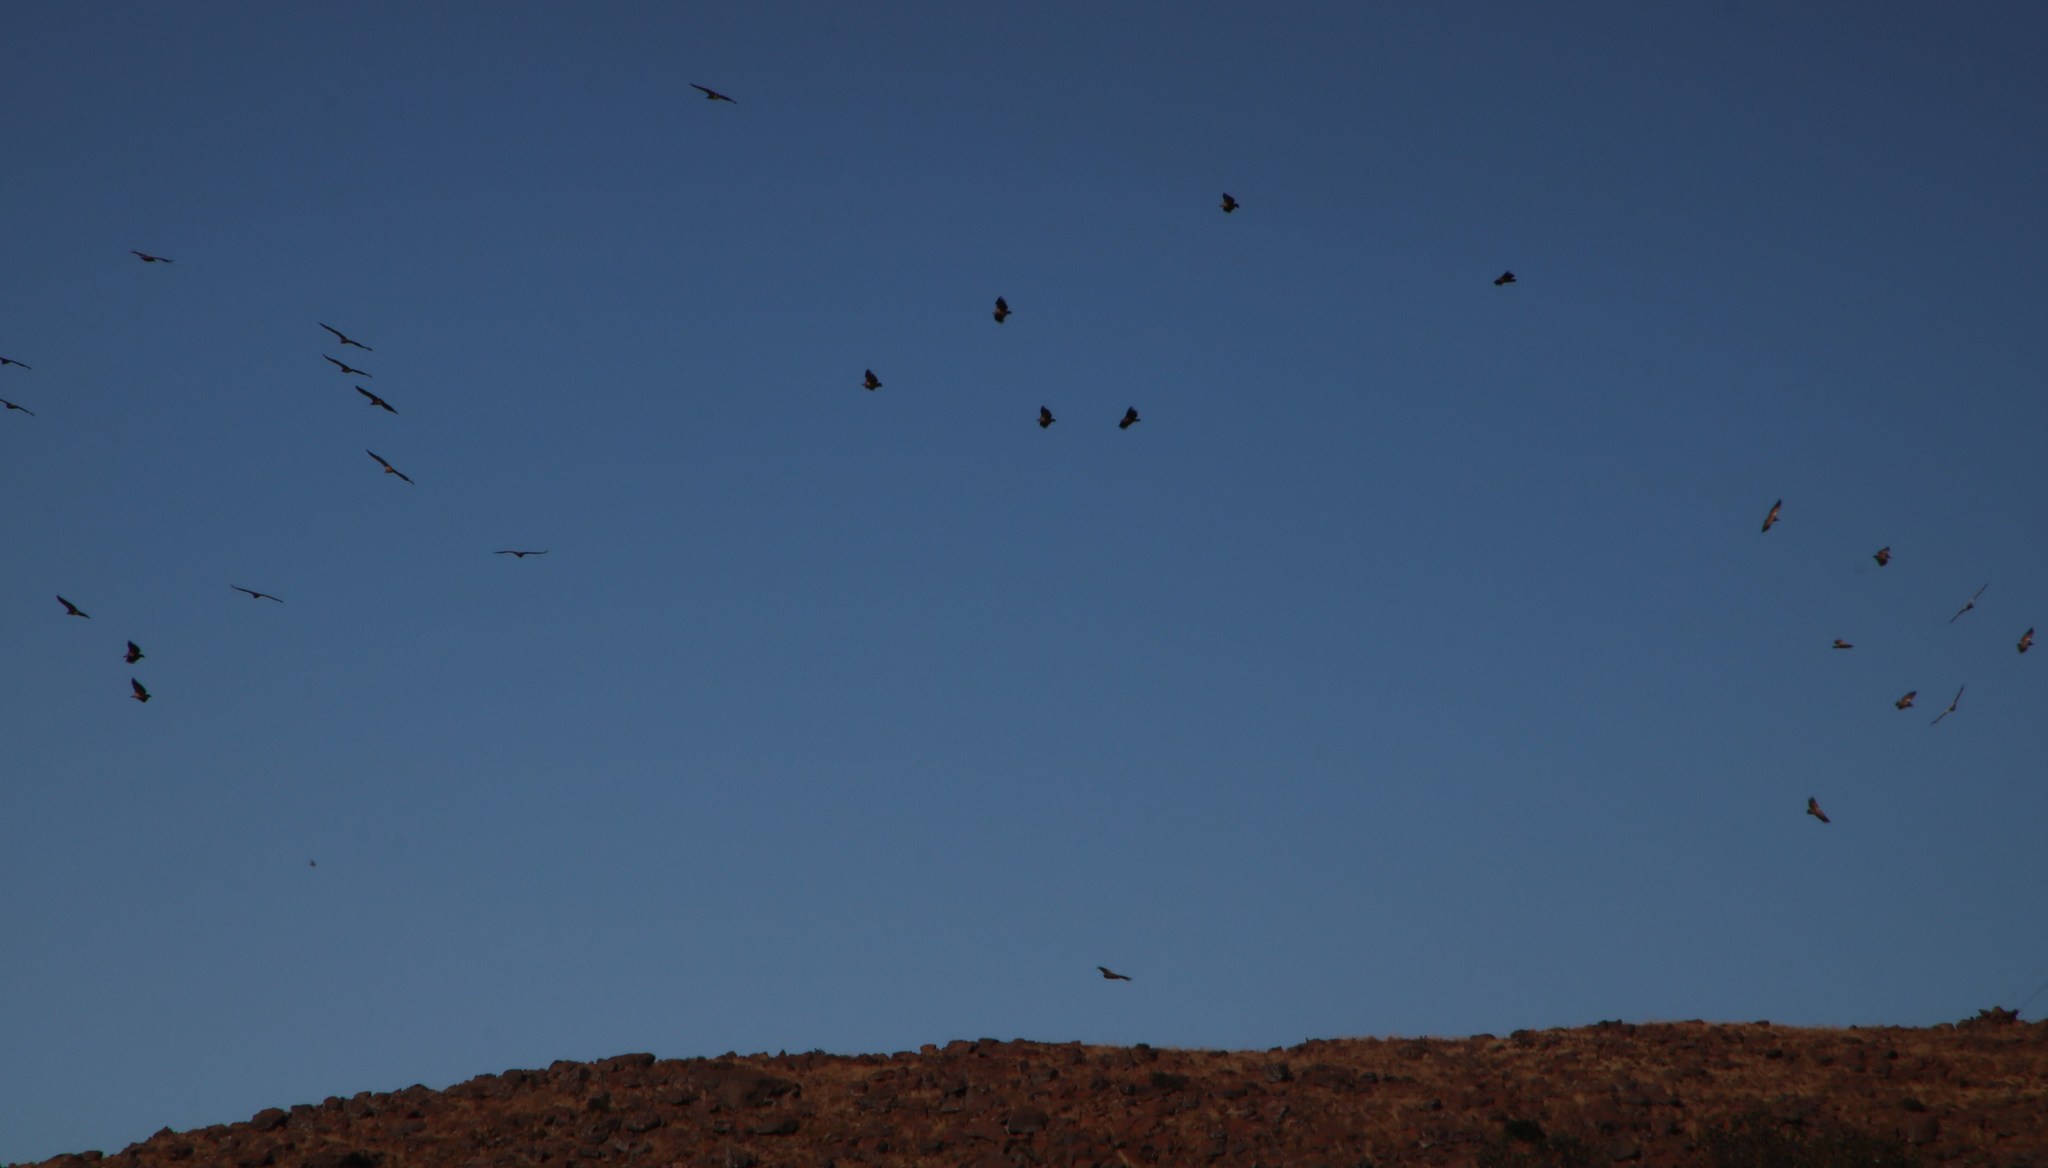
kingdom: Animalia
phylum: Chordata
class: Aves
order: Accipitriformes
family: Accipitridae
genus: Gyps
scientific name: Gyps coprotheres
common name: Cape vulture
